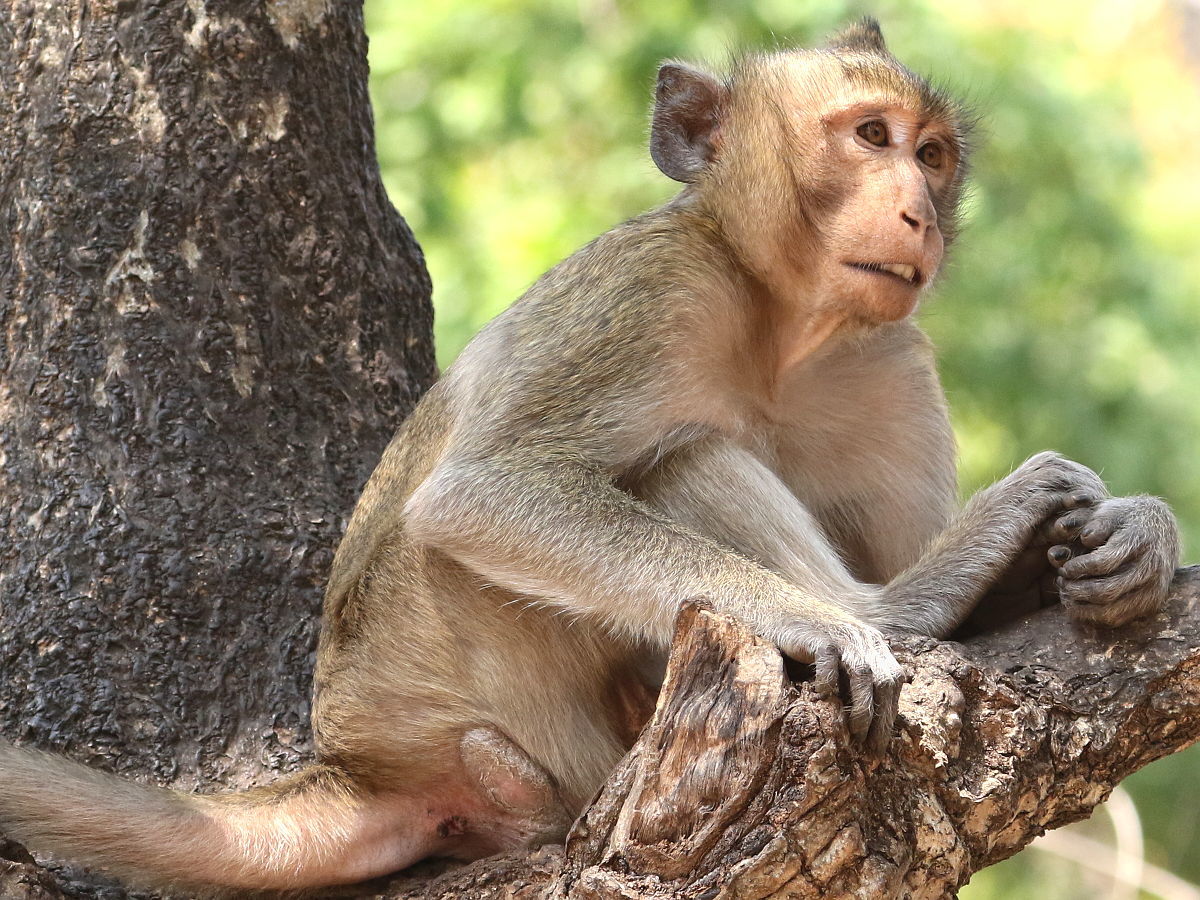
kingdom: Animalia
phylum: Chordata
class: Mammalia
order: Primates
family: Cercopithecidae
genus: Macaca
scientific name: Macaca fascicularis
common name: Crab-eating macaque
